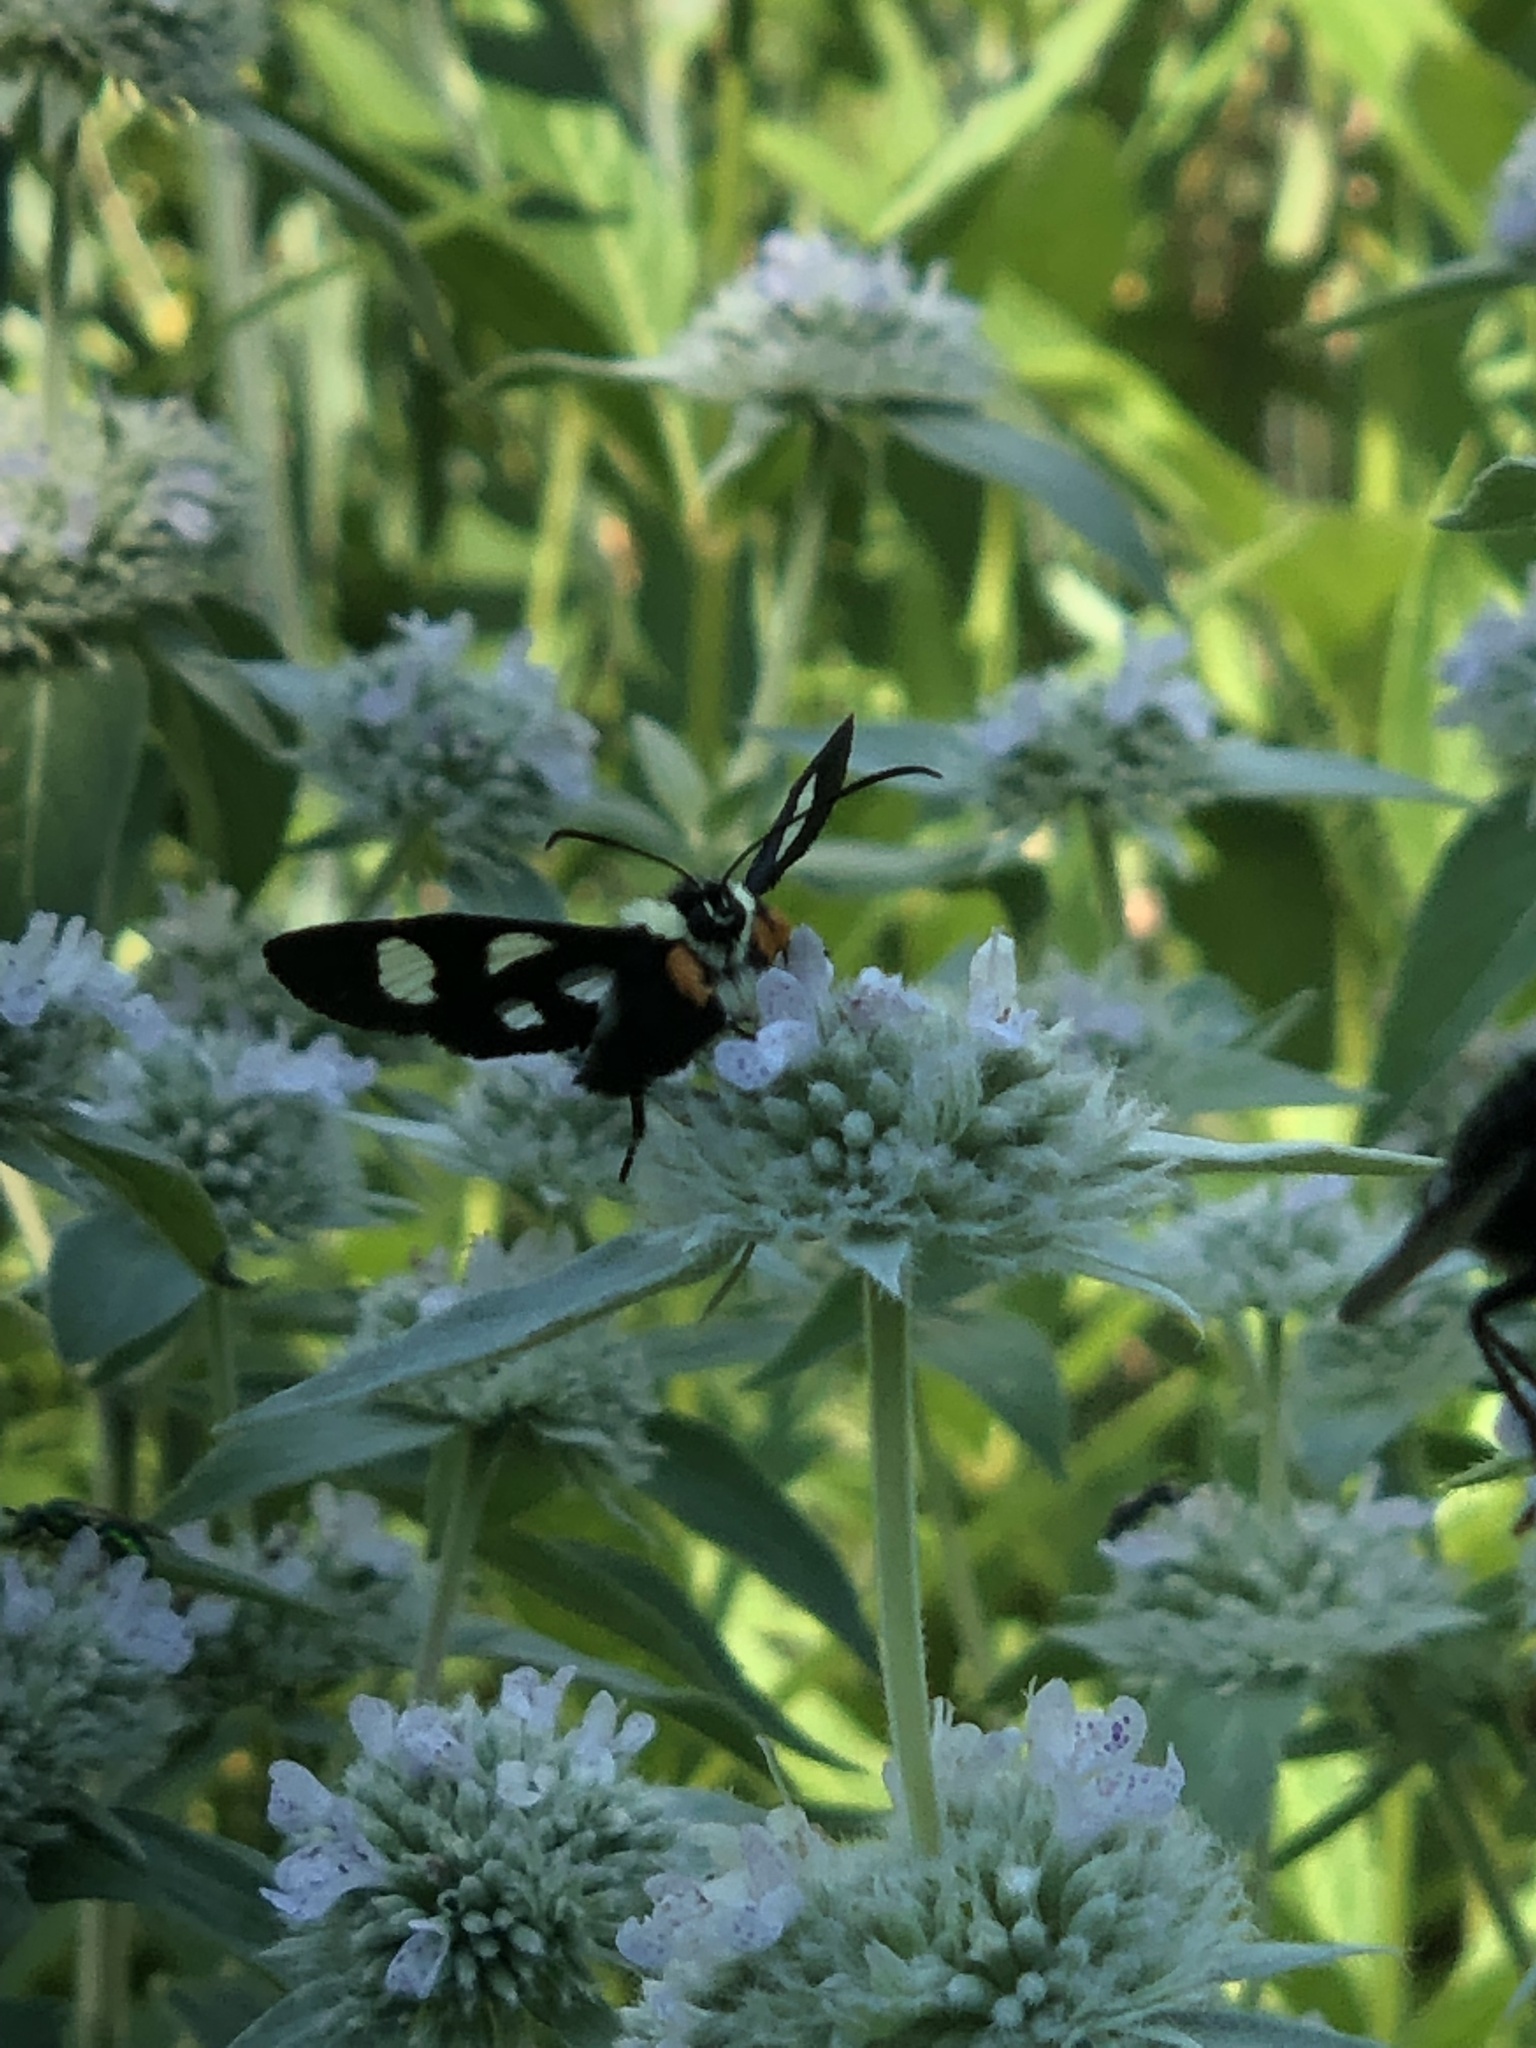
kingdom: Animalia
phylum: Arthropoda
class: Insecta
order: Lepidoptera
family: Noctuidae
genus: Alypia
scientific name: Alypia octomaculata
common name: Eight-spotted forester
